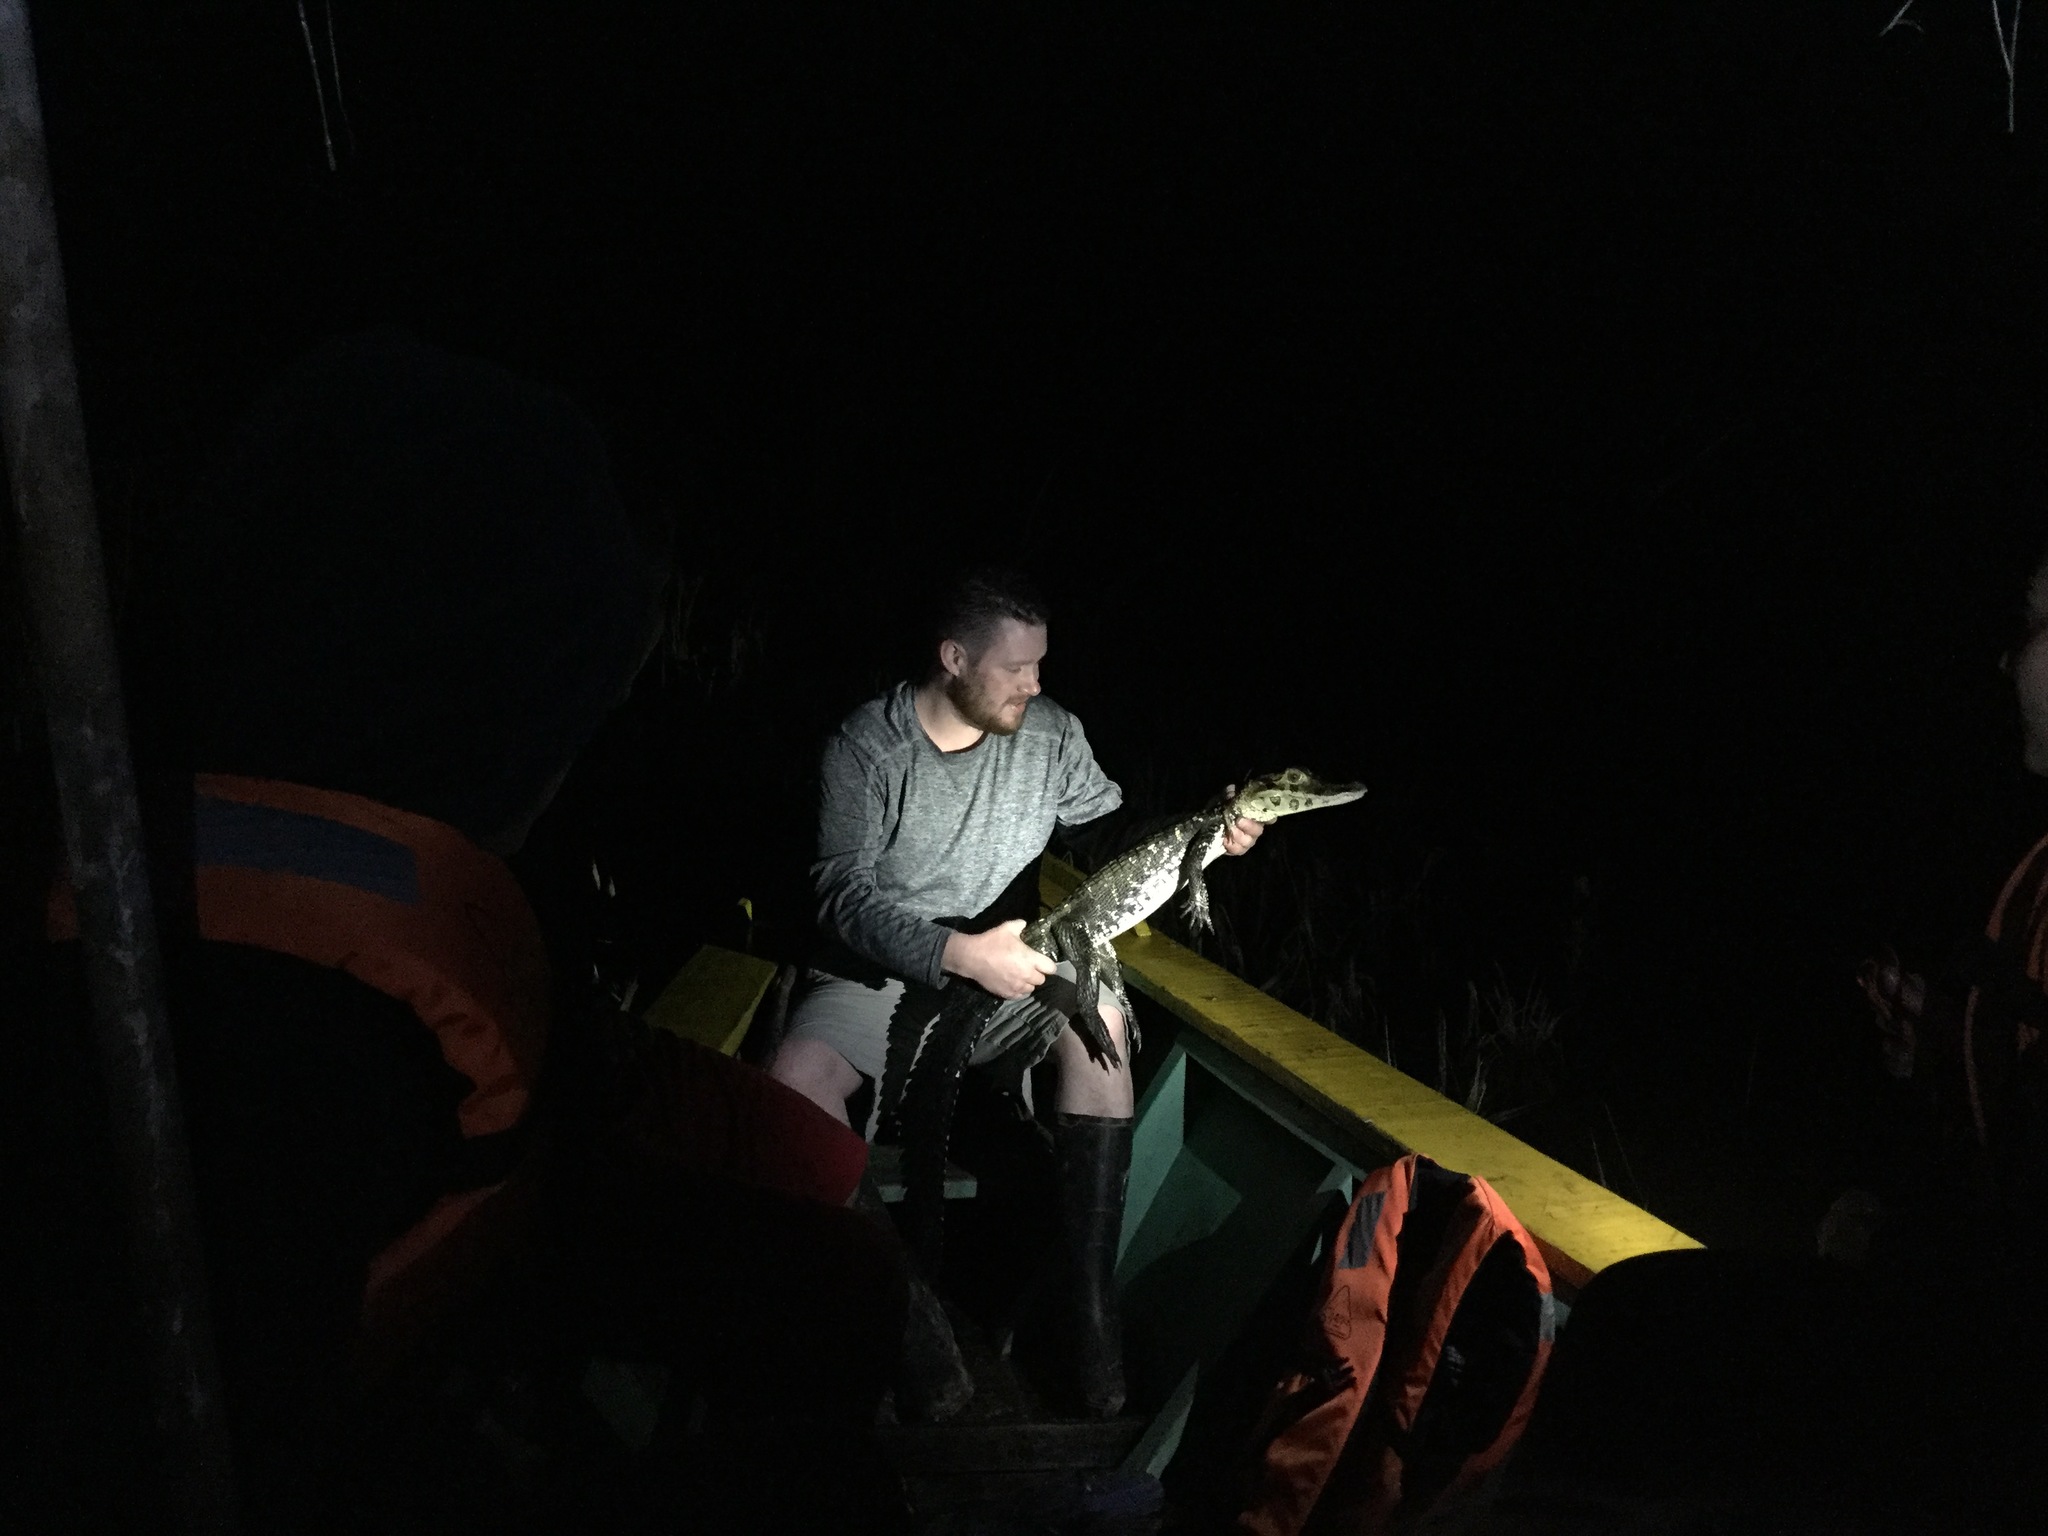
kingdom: Animalia
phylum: Chordata
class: Crocodylia
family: Alligatoridae
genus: Melanosuchus
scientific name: Melanosuchus niger
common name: Black caiman
